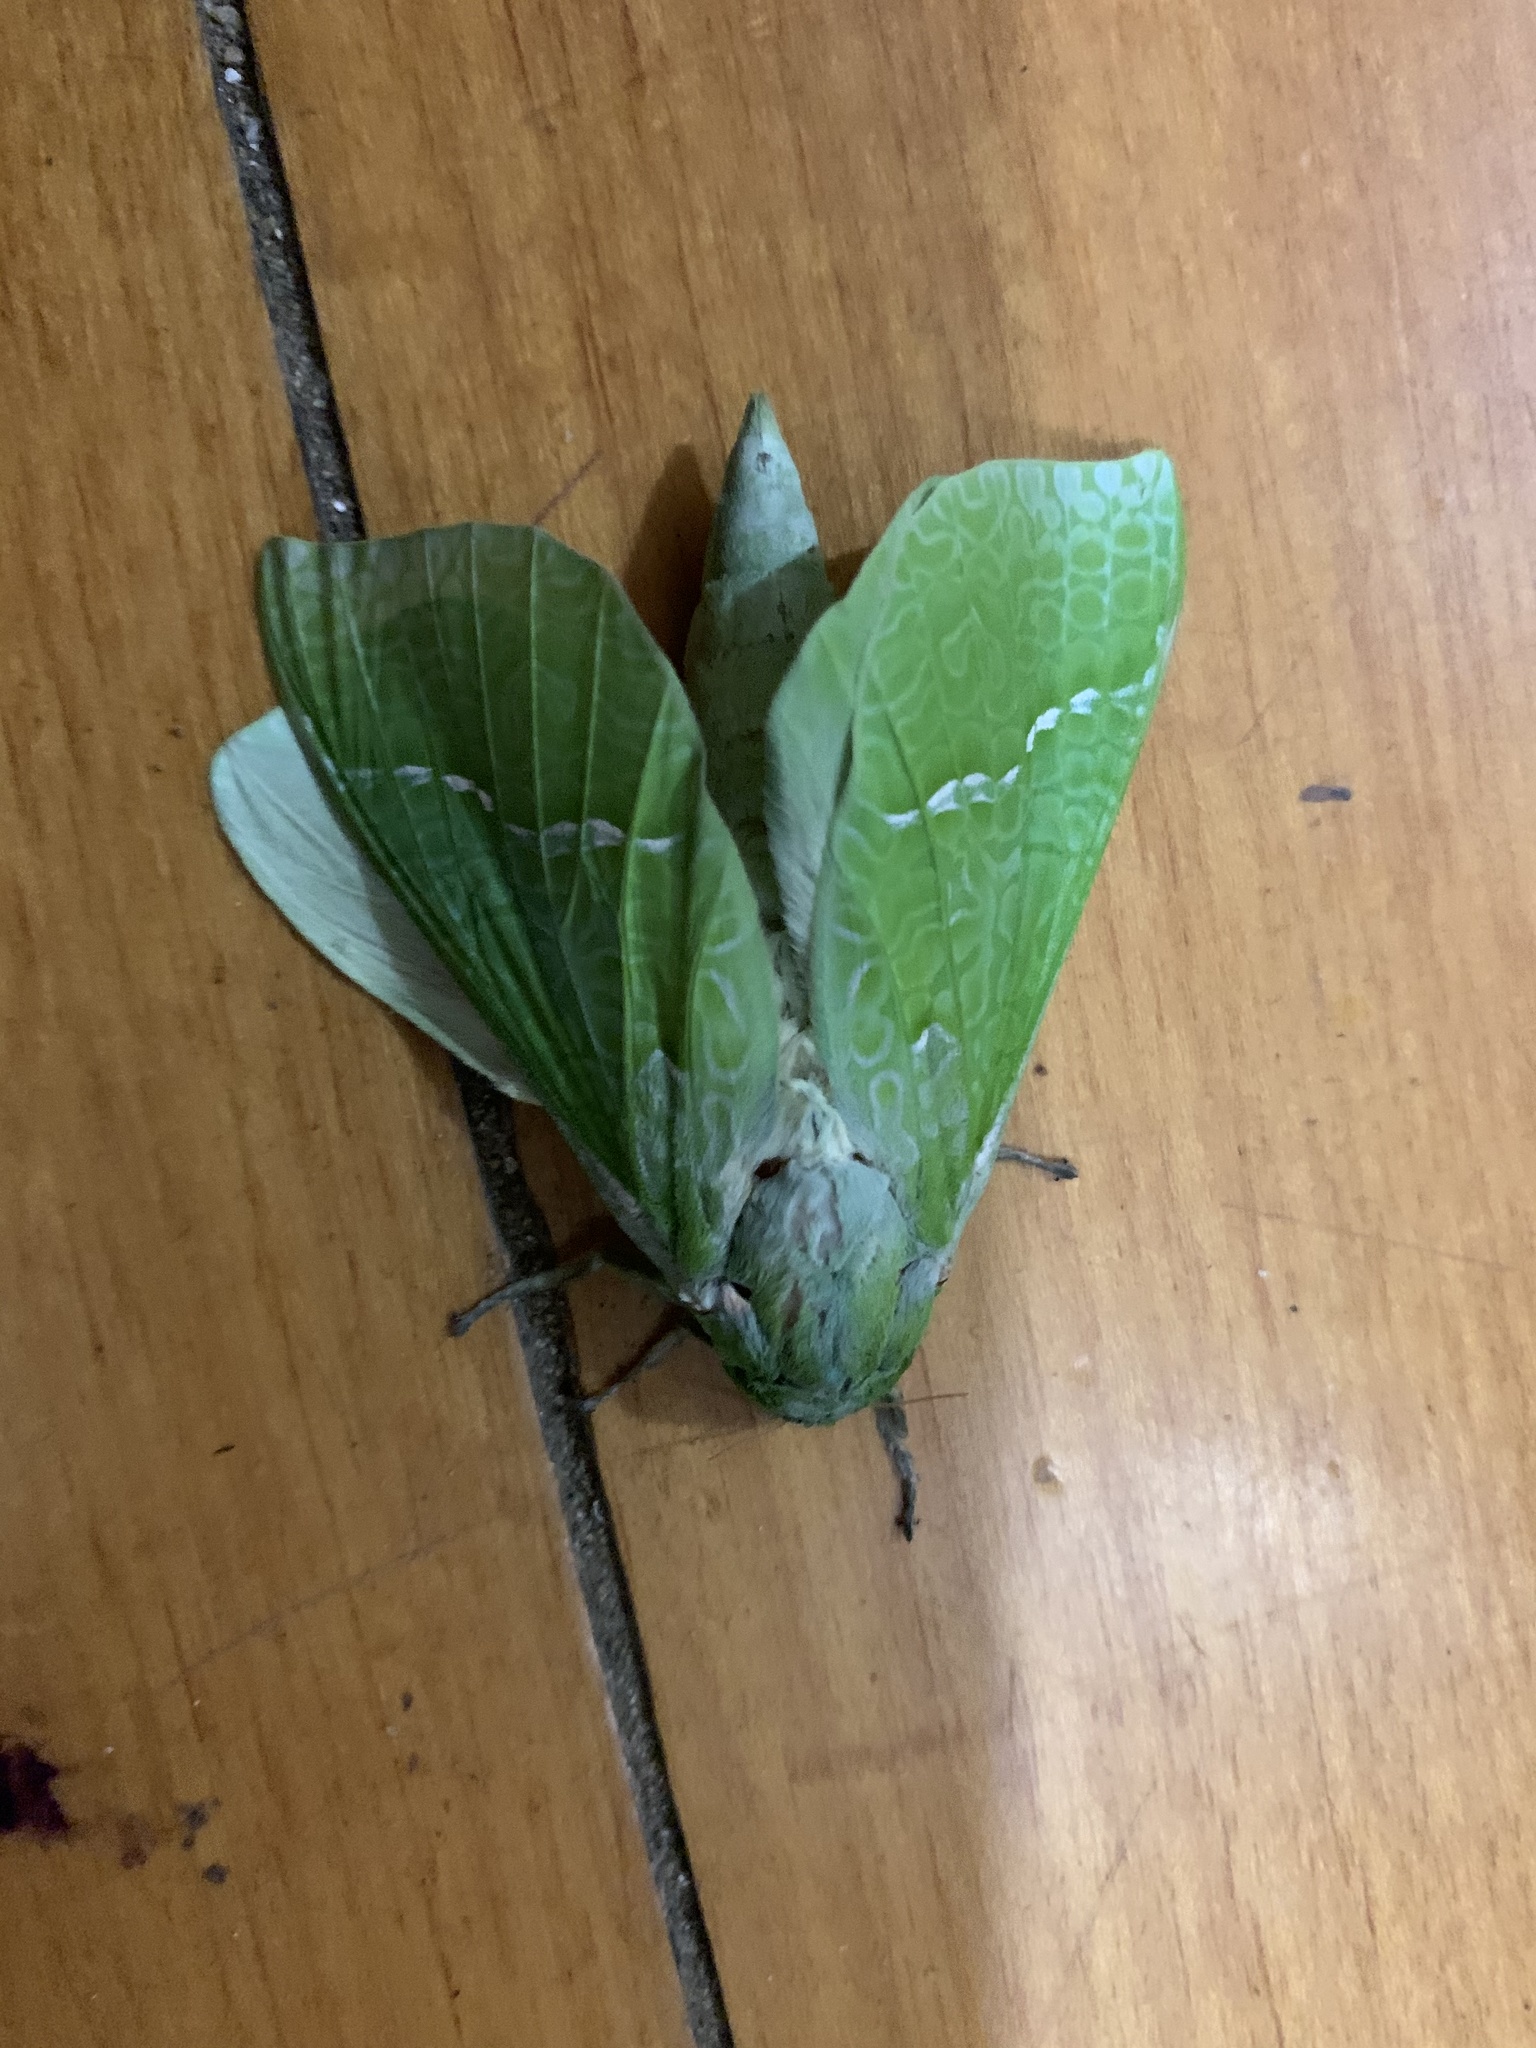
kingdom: Animalia
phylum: Arthropoda
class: Insecta
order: Lepidoptera
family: Hepialidae
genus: Aenetus
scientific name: Aenetus virescens
